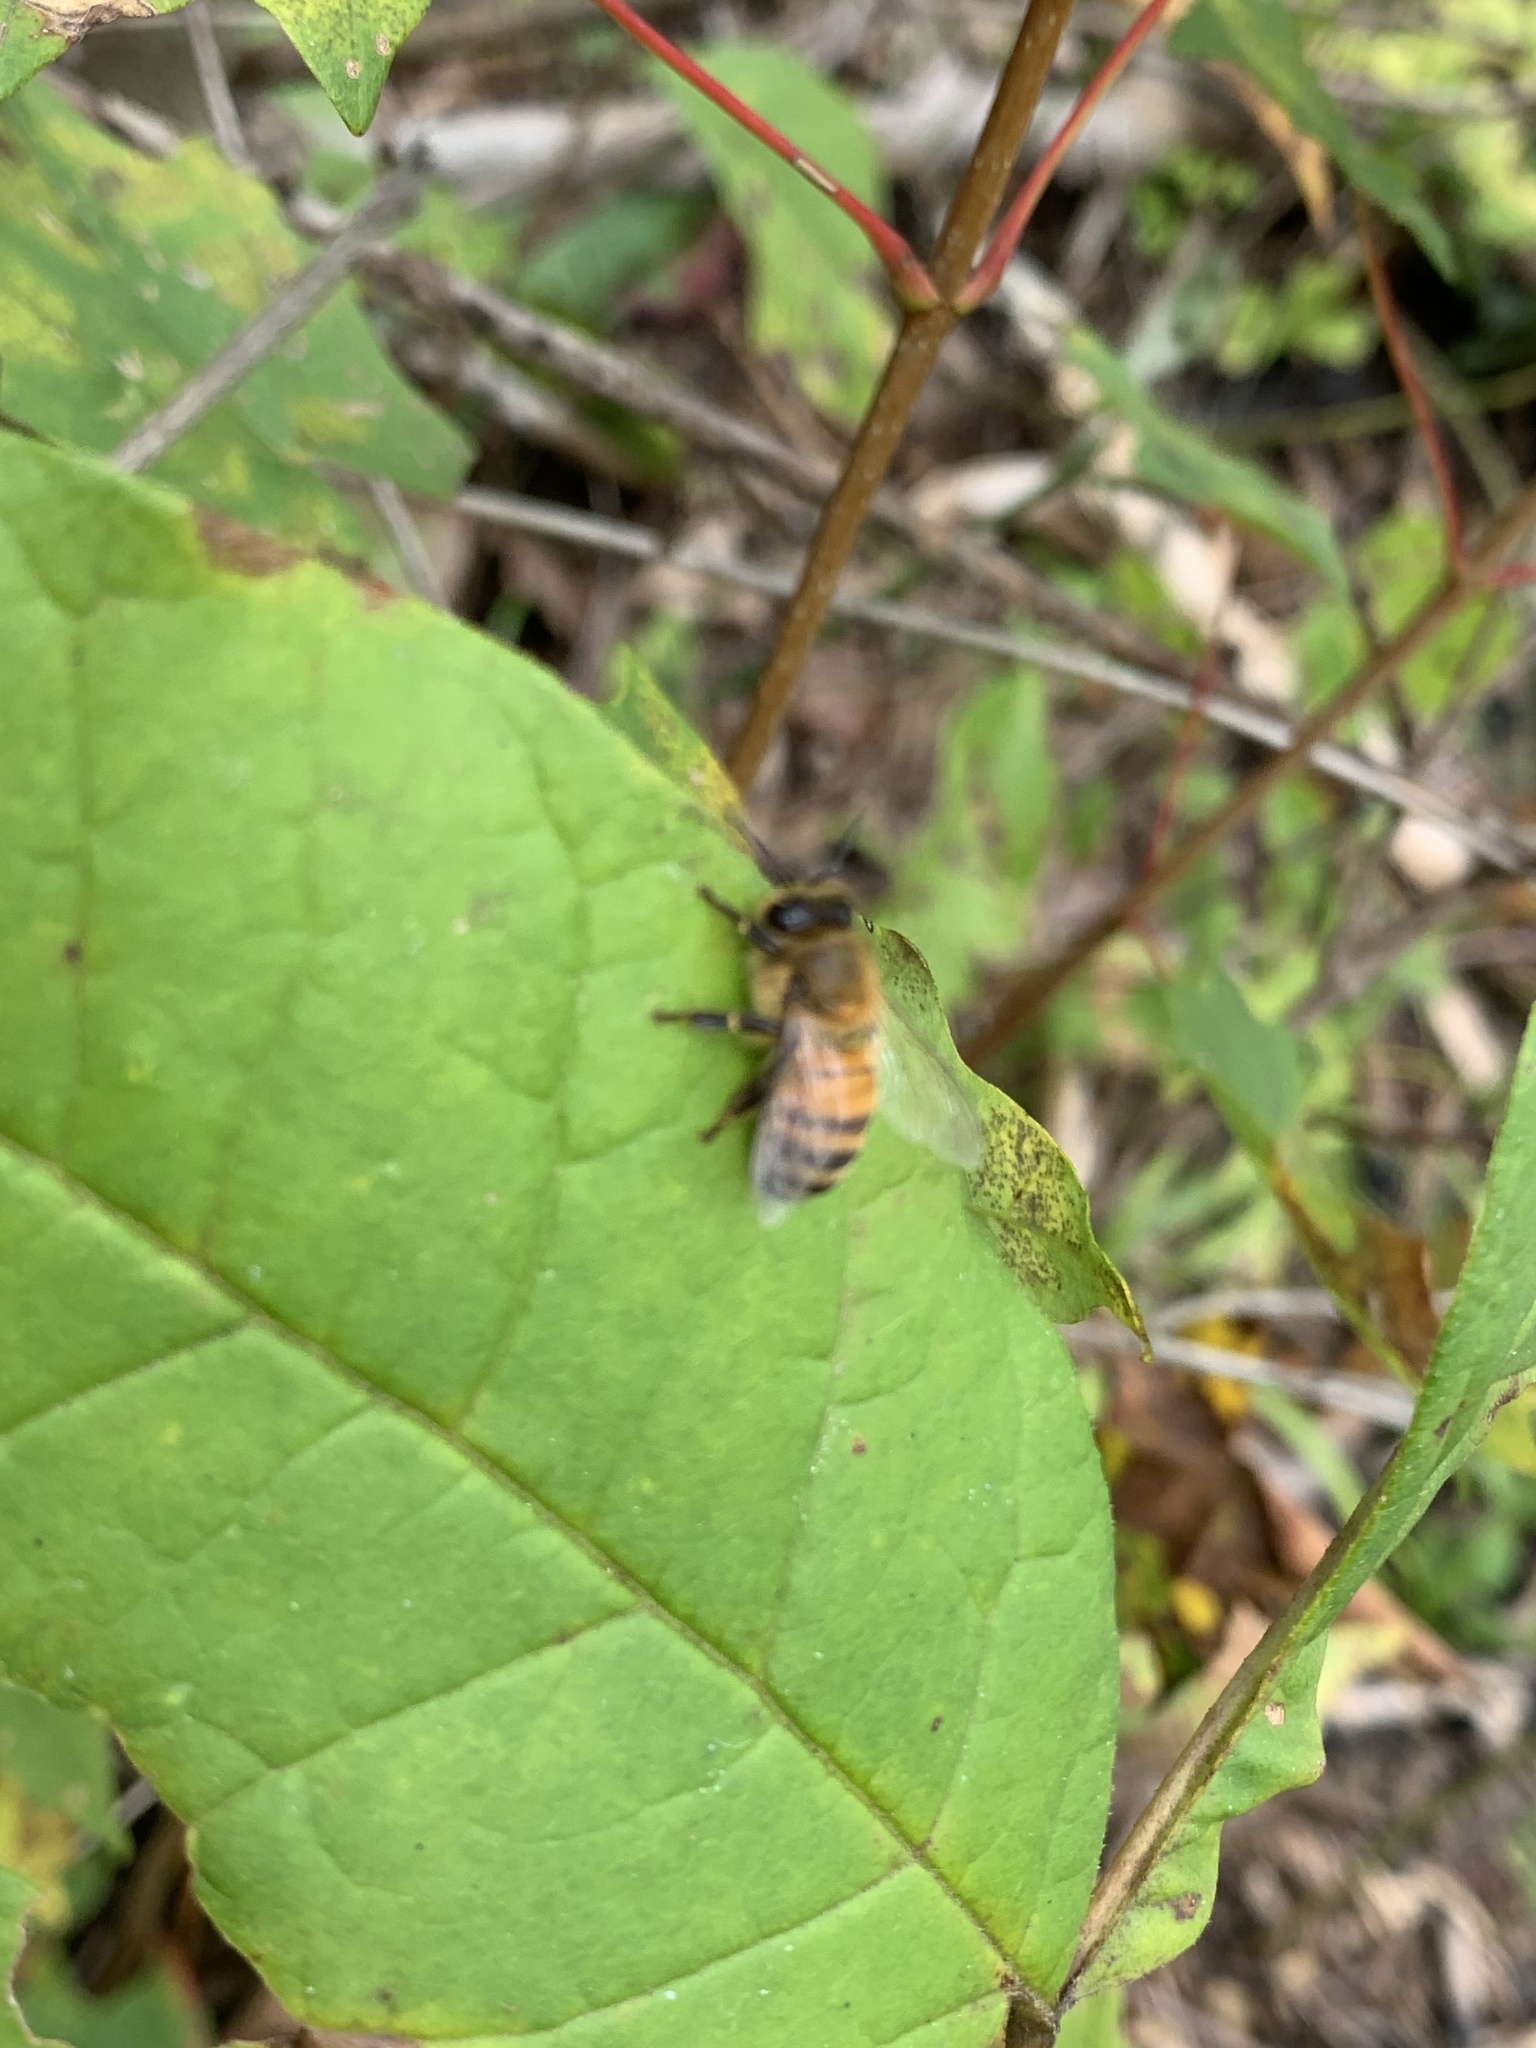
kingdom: Animalia
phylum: Arthropoda
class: Insecta
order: Hymenoptera
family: Apidae
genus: Apis
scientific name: Apis mellifera
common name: Honey bee
